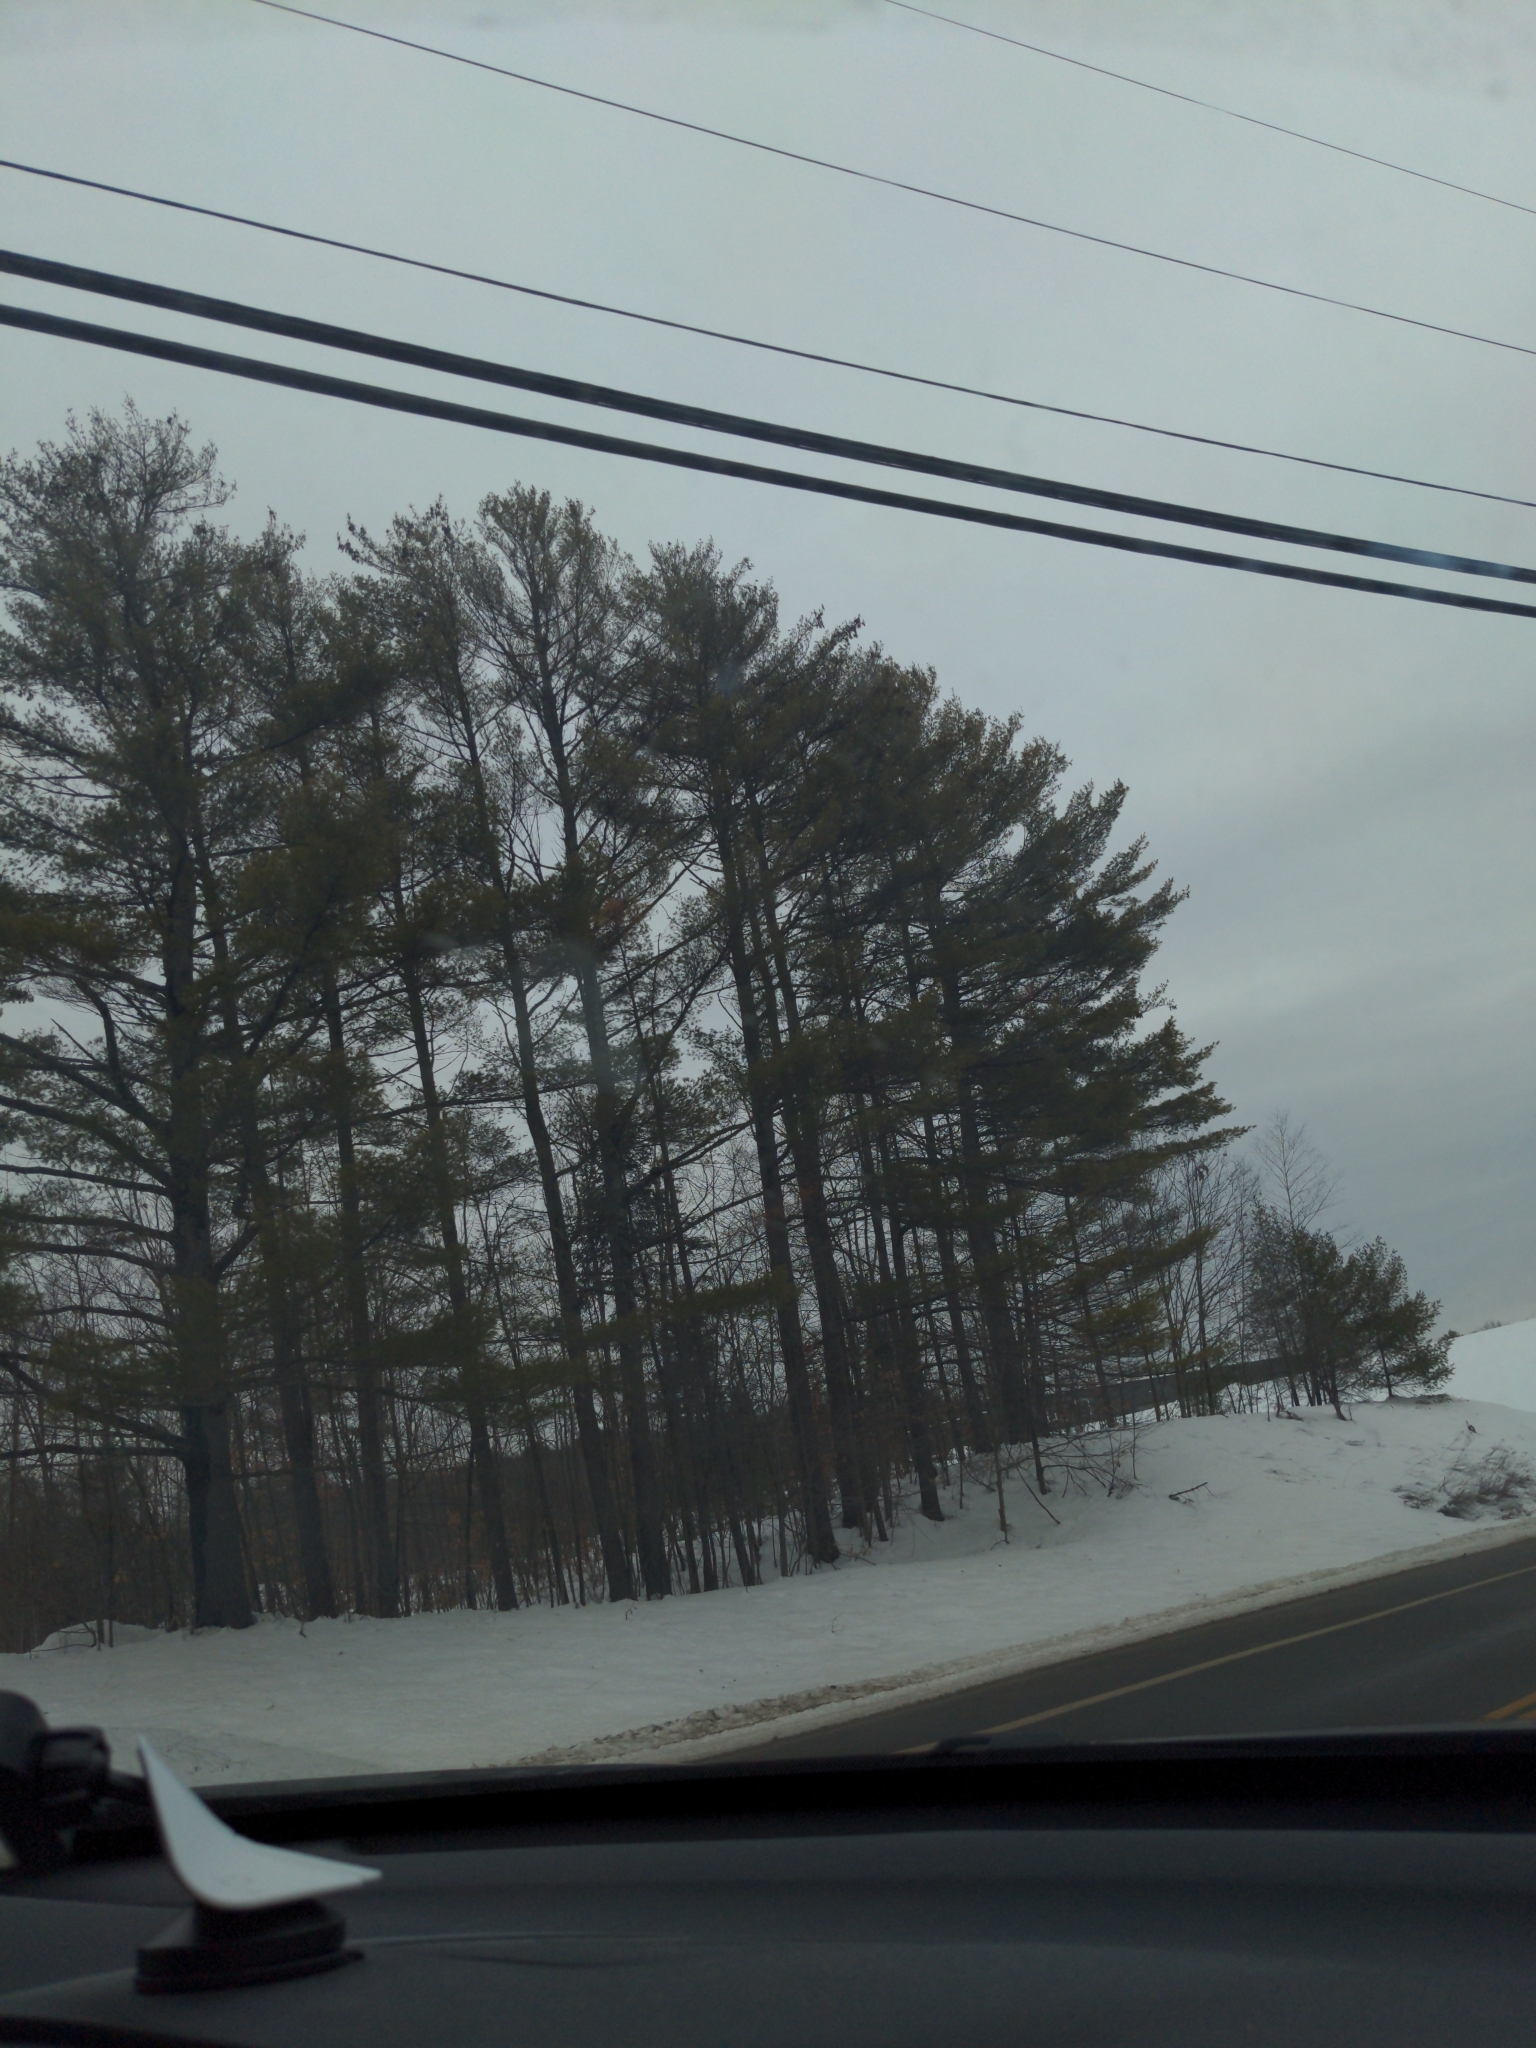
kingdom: Plantae
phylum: Tracheophyta
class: Pinopsida
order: Pinales
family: Pinaceae
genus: Pinus
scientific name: Pinus strobus
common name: Weymouth pine
